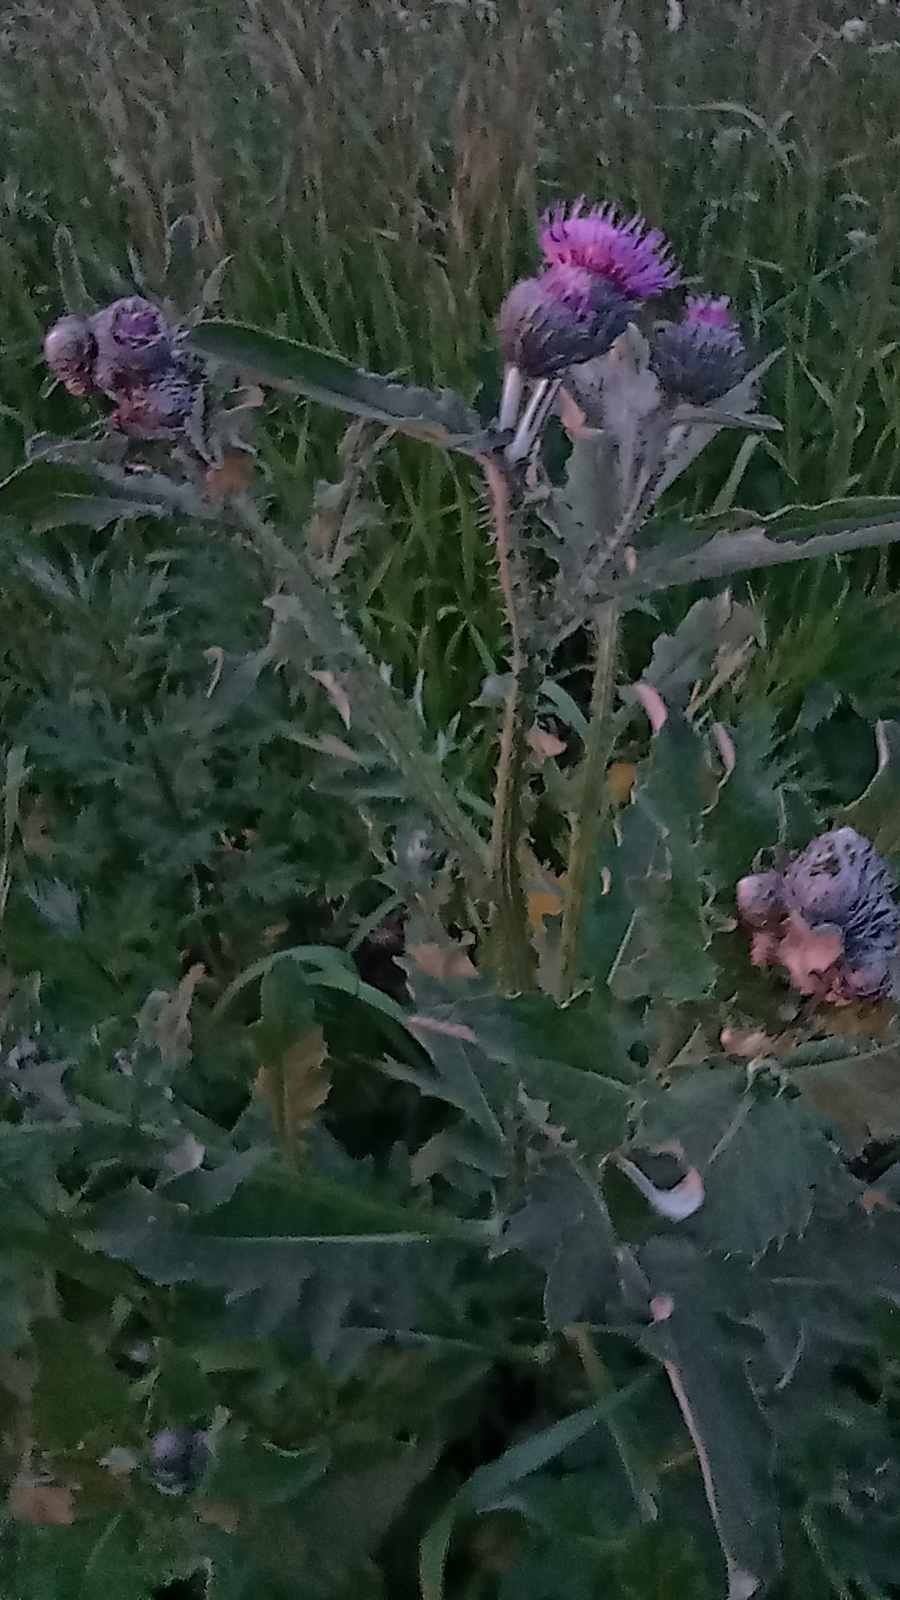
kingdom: Plantae
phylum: Tracheophyta
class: Magnoliopsida
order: Asterales
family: Asteraceae
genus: Carduus
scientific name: Carduus crispus
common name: Welted thistle
